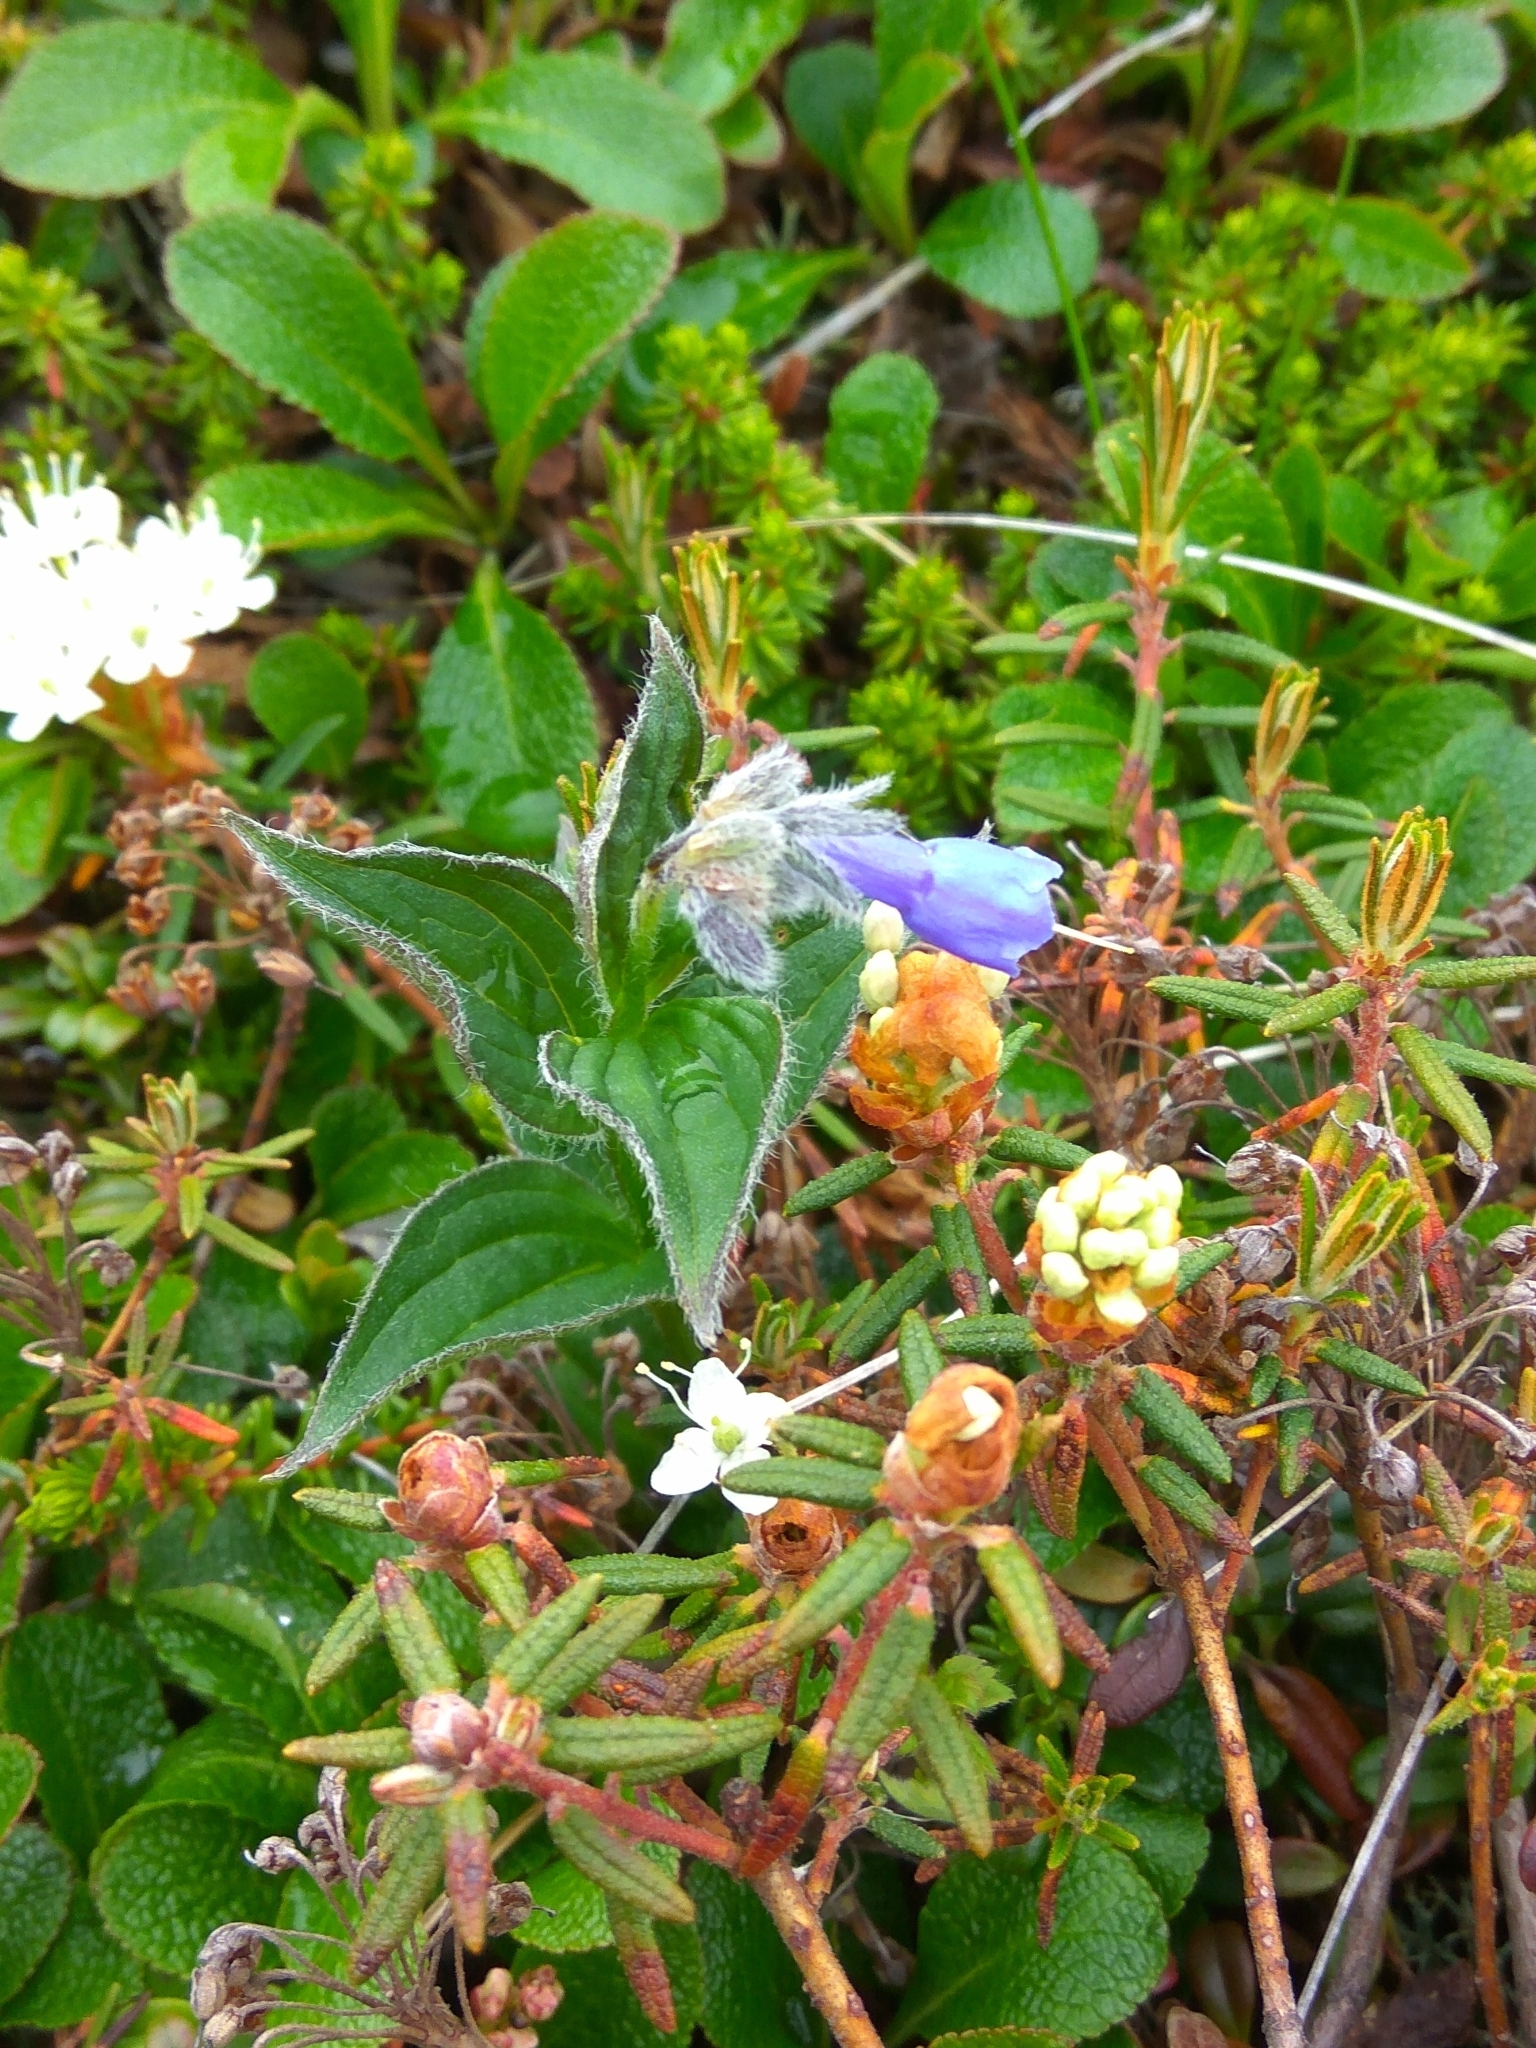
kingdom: Plantae
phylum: Tracheophyta
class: Magnoliopsida
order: Boraginales
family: Boraginaceae
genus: Mertensia
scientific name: Mertensia kamczatica
